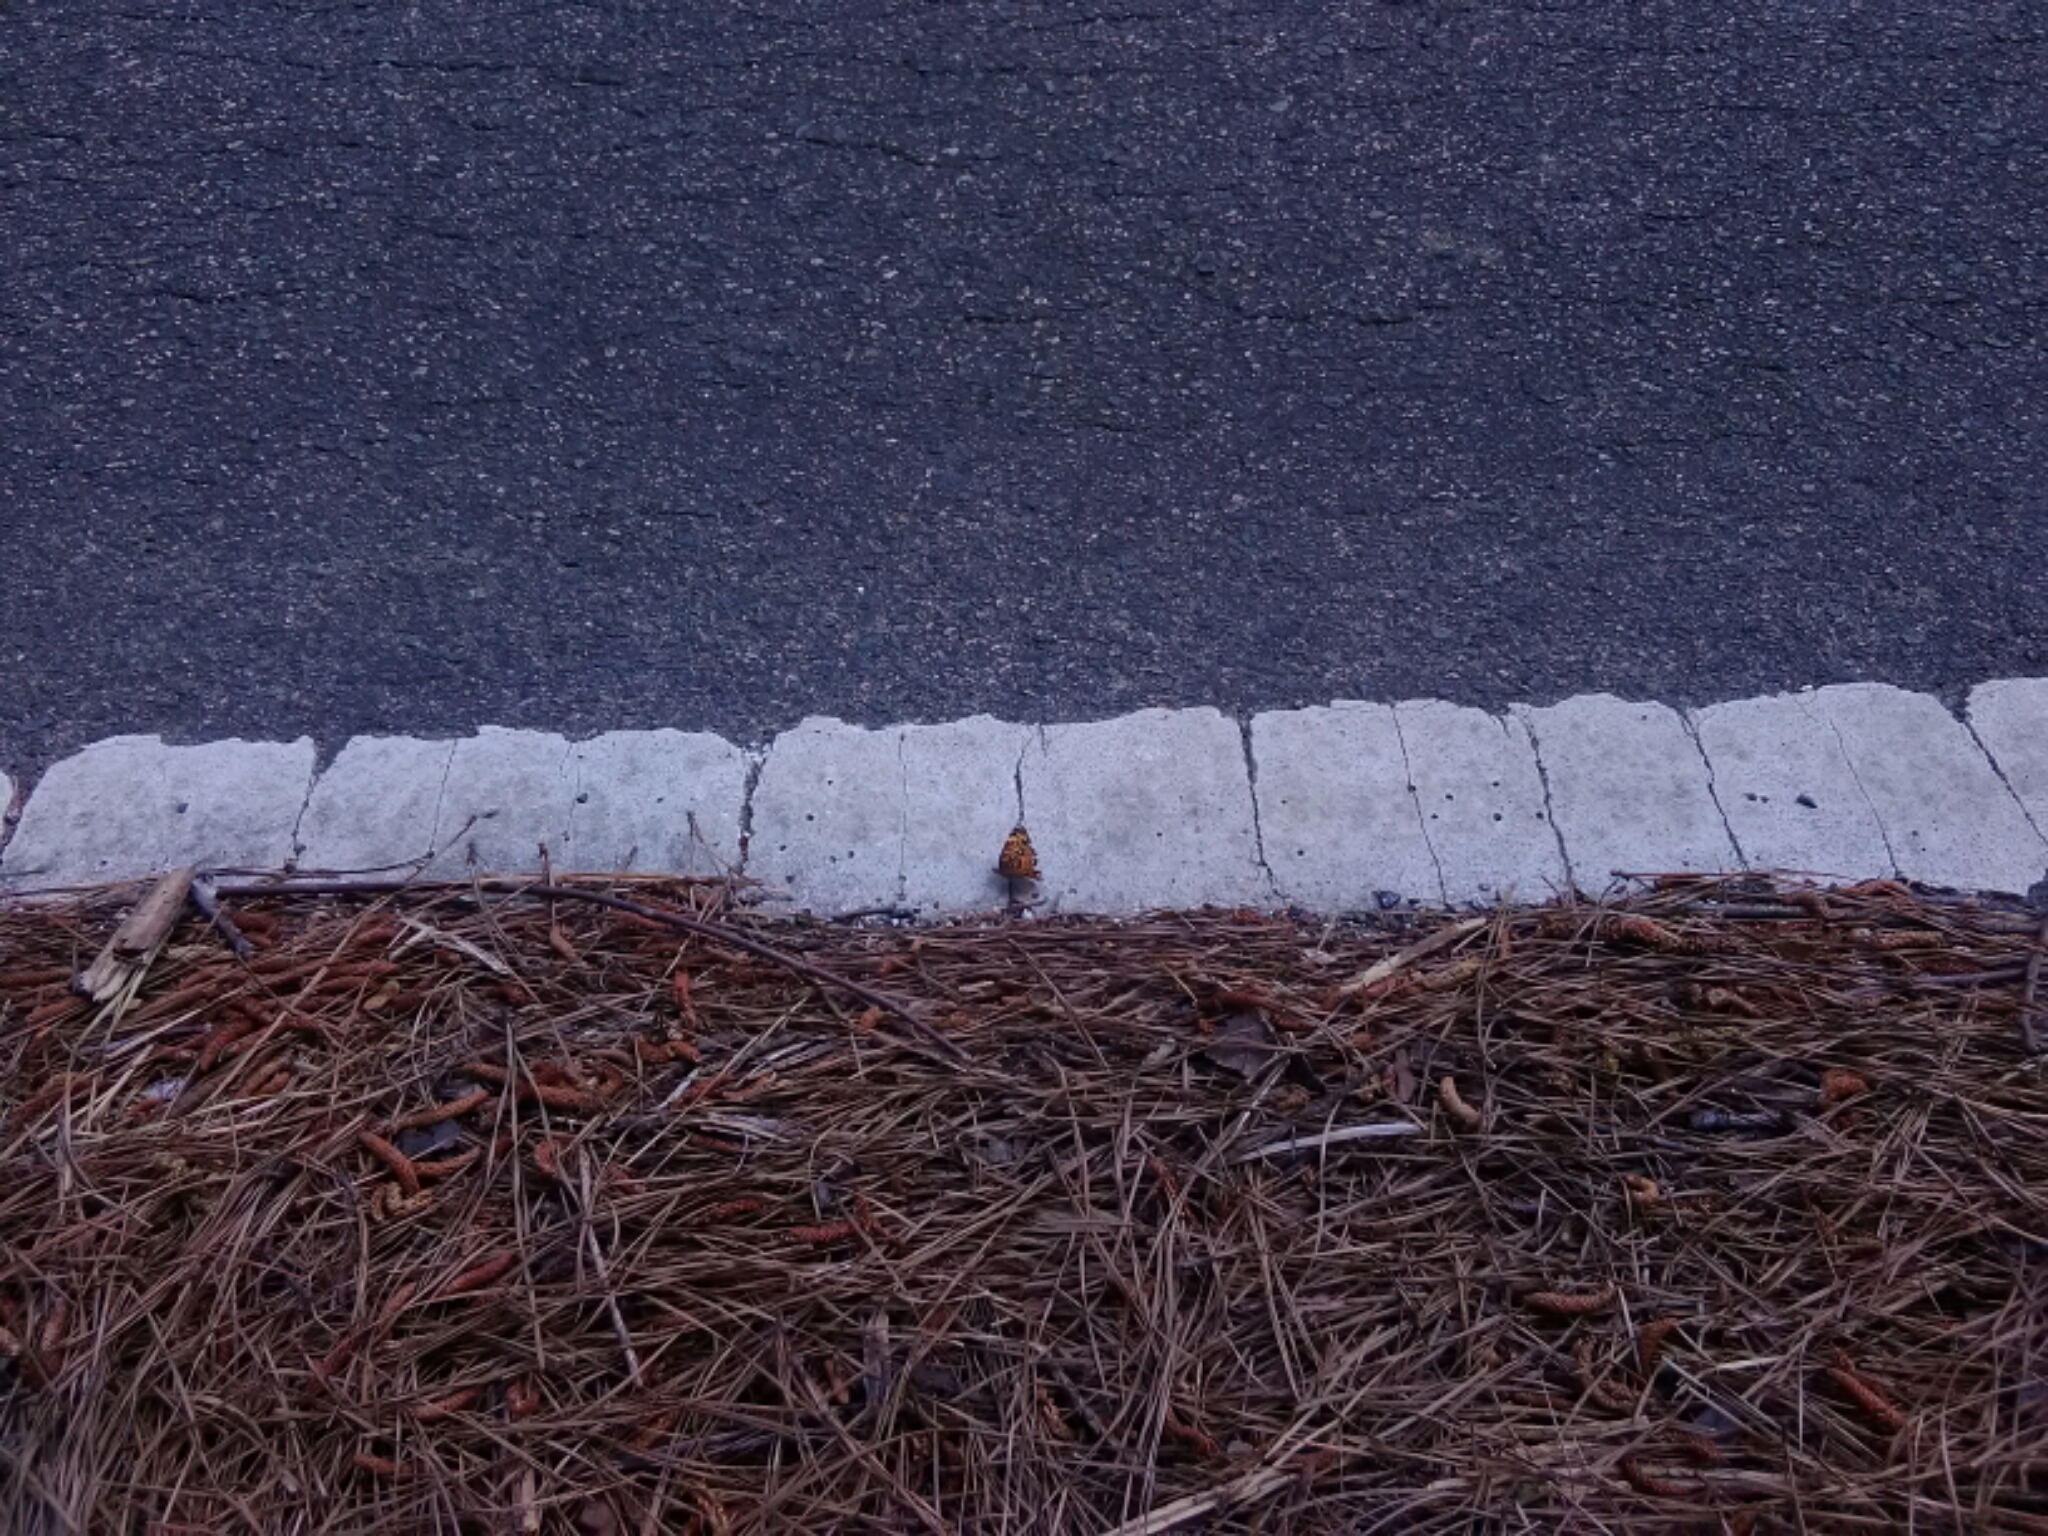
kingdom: Animalia
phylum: Arthropoda
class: Insecta
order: Lepidoptera
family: Nymphalidae
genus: Phyciodes
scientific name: Phyciodes tharos
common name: Pearl crescent
